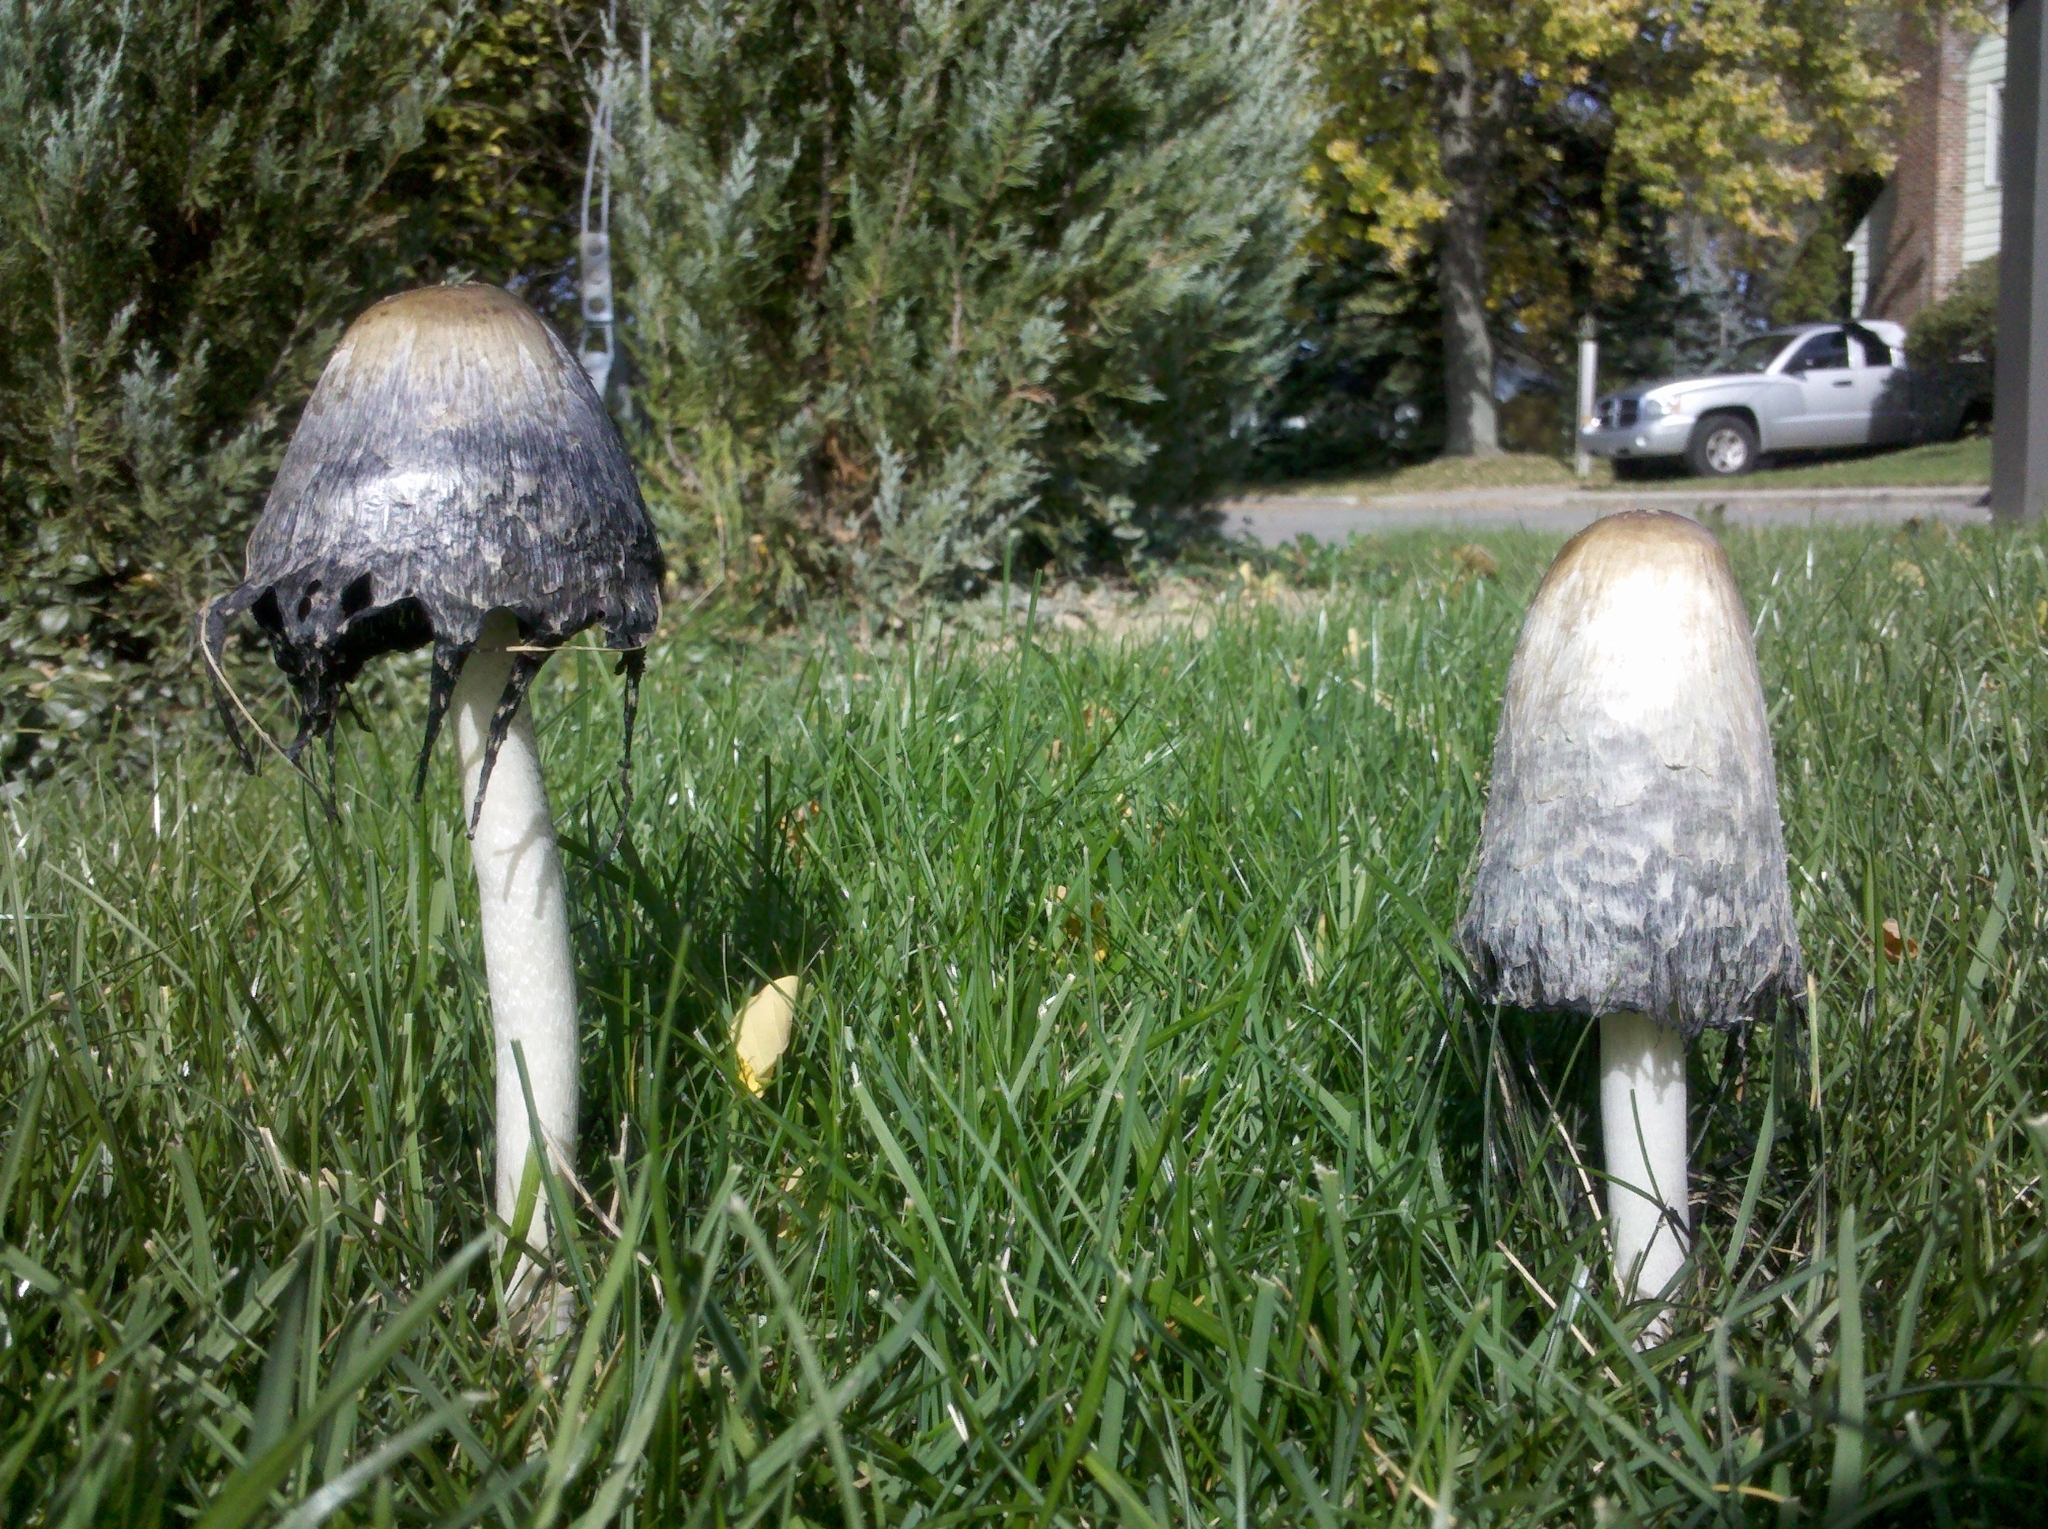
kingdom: Fungi
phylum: Basidiomycota
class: Agaricomycetes
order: Agaricales
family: Psathyrellaceae
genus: Coprinopsis
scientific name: Coprinopsis atramentaria
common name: Common ink-cap
